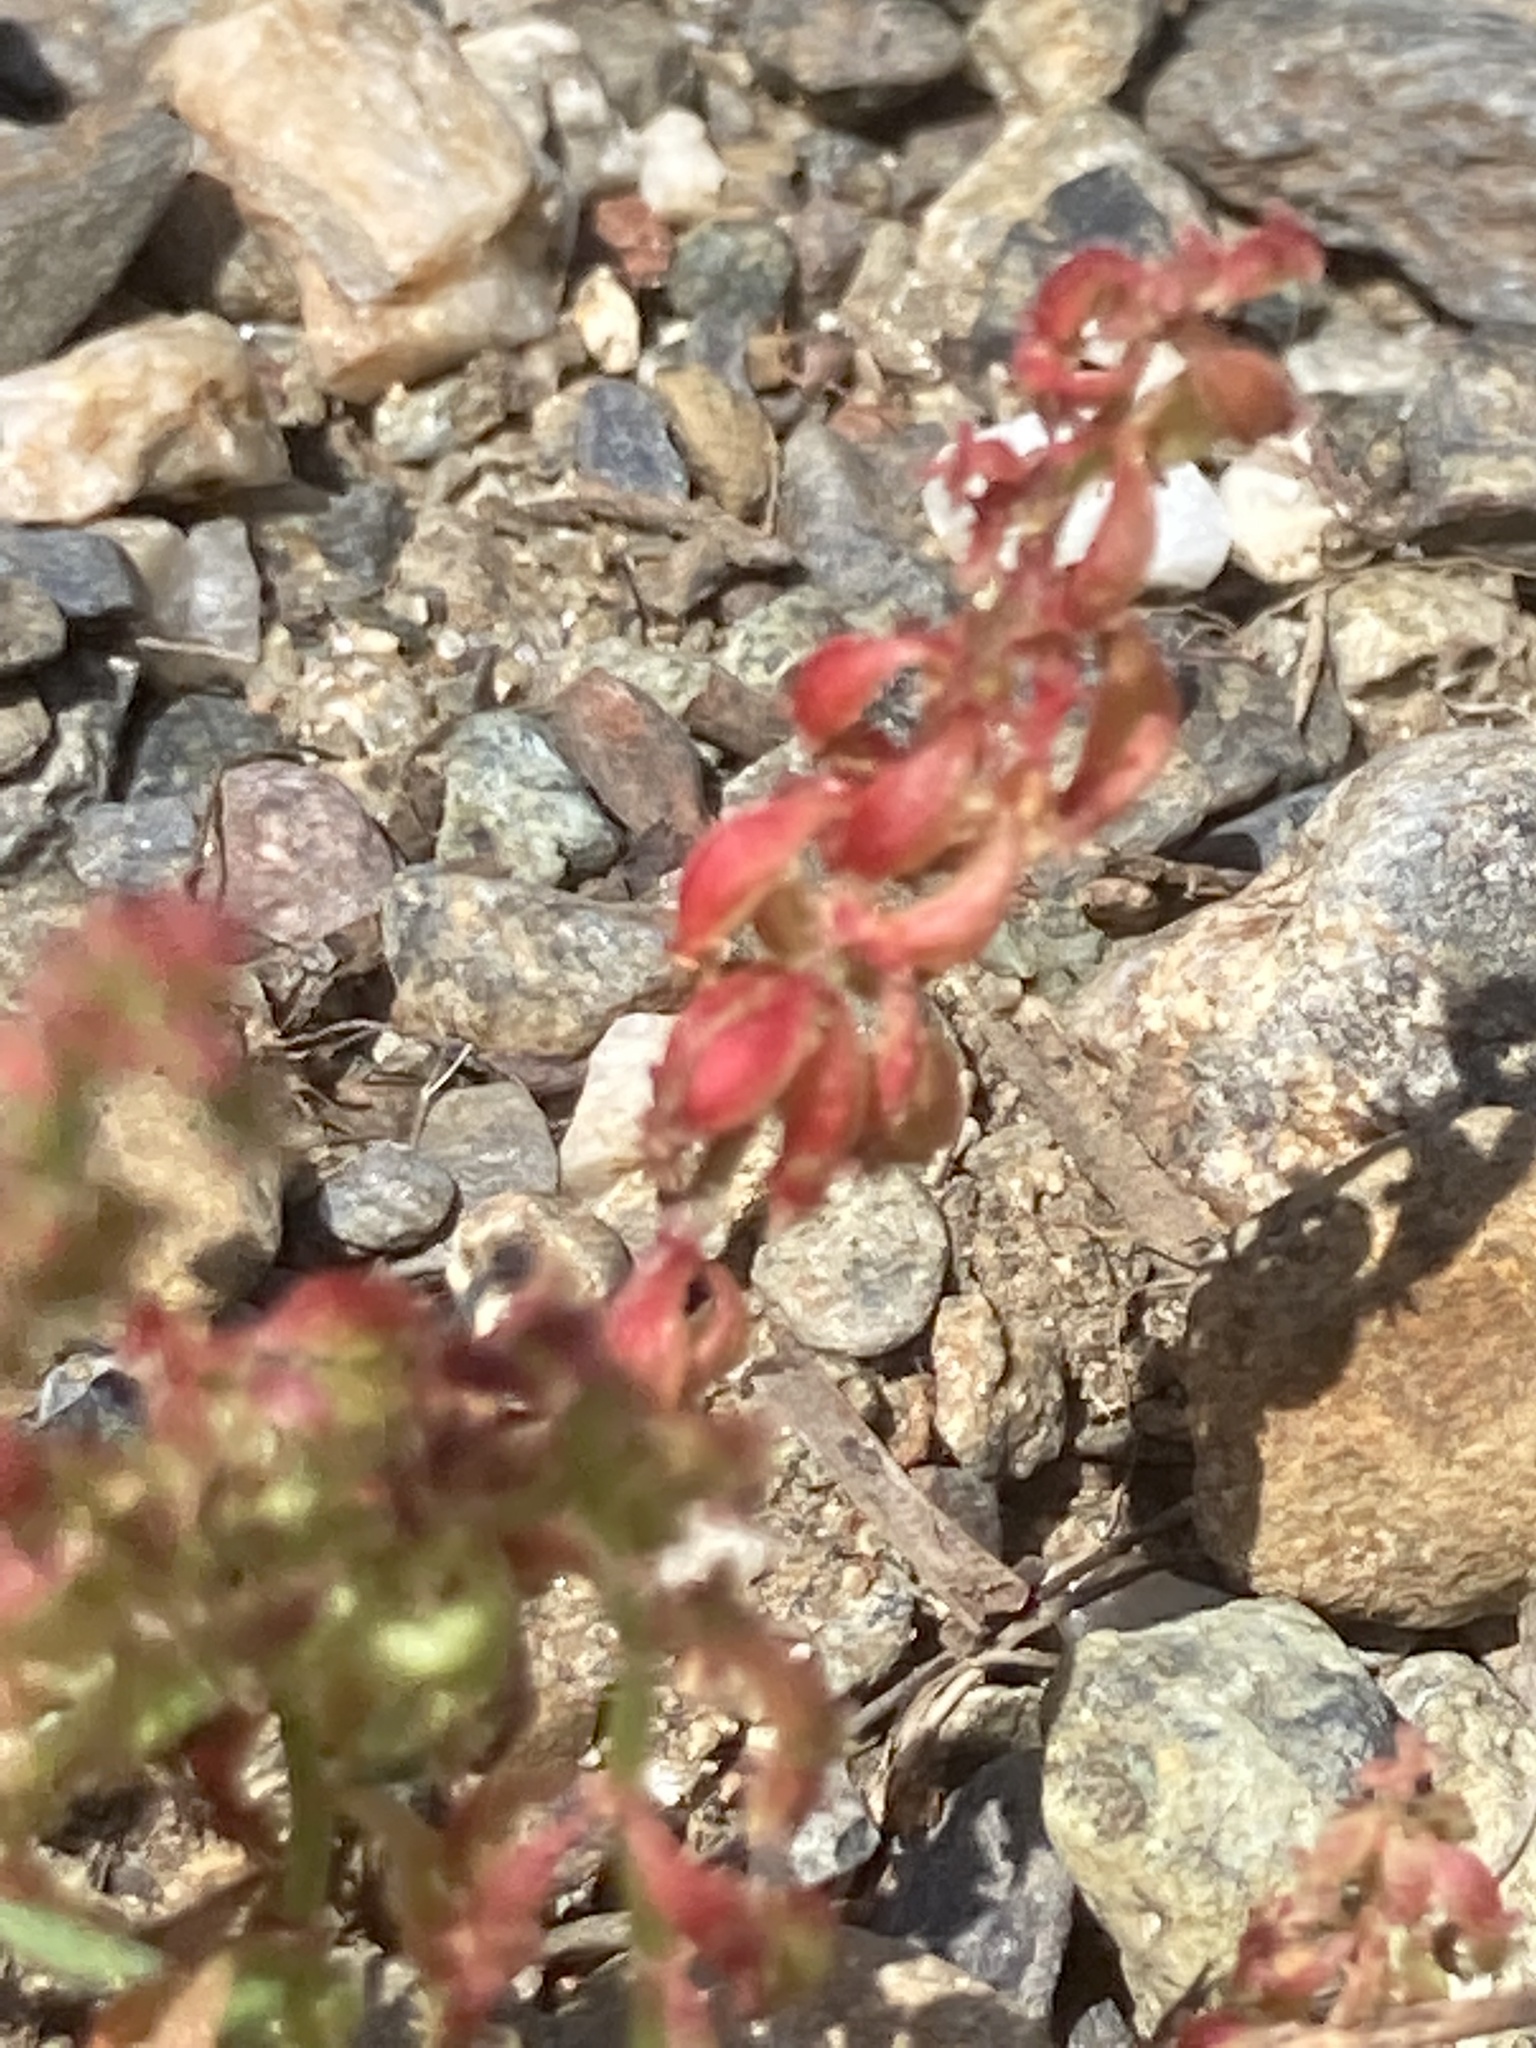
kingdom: Plantae
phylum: Tracheophyta
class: Magnoliopsida
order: Caryophyllales
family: Polygonaceae
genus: Rumex
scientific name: Rumex bucephalophorus
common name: Red dock
